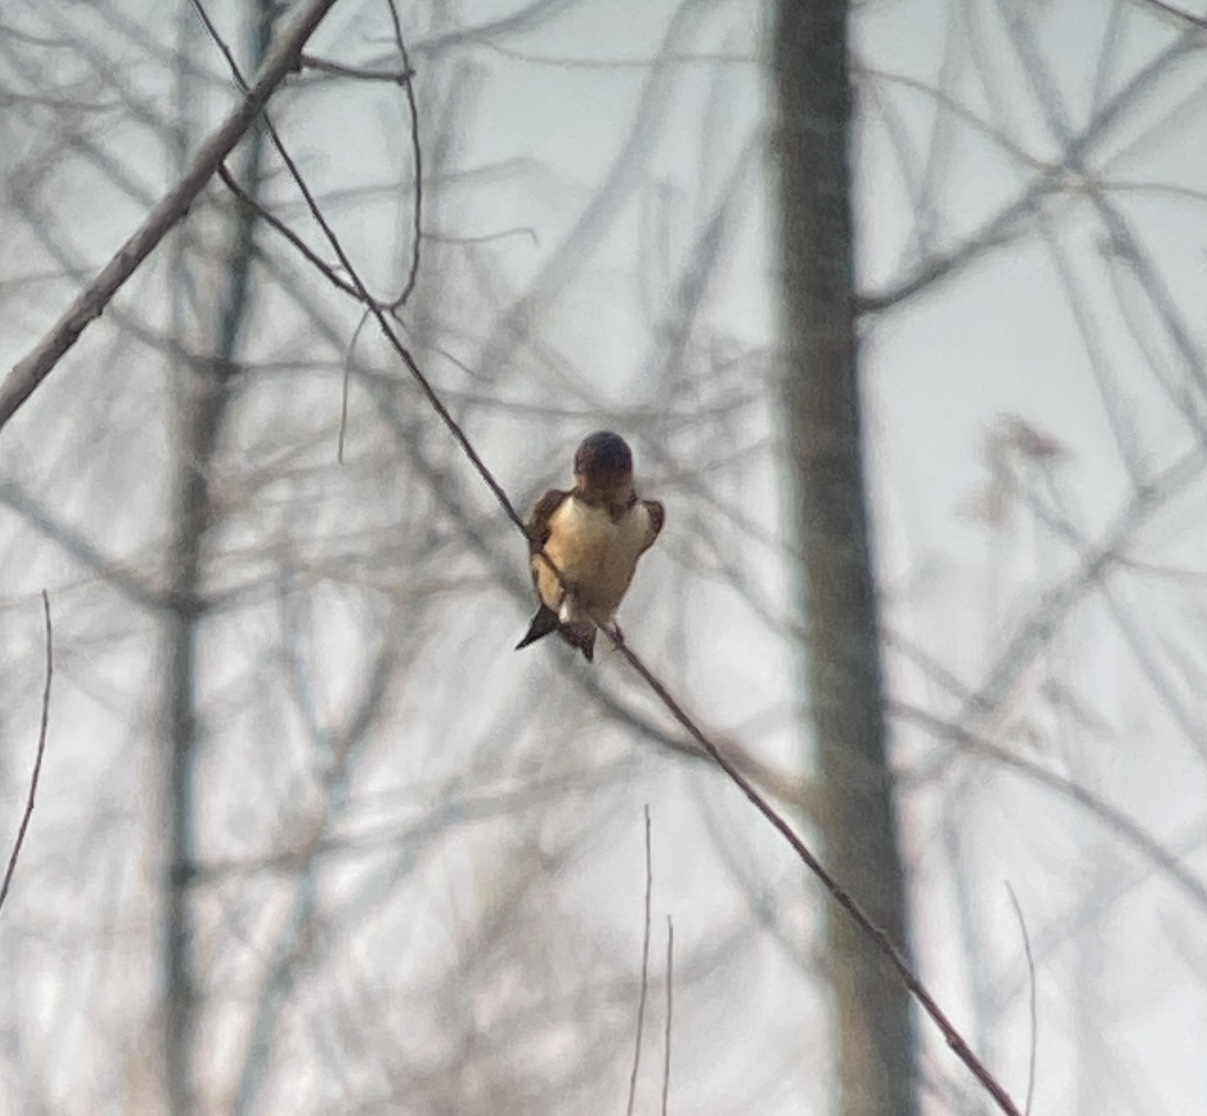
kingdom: Animalia
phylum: Chordata
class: Aves
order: Passeriformes
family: Hirundinidae
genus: Hirundo
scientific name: Hirundo rustica
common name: Barn swallow
